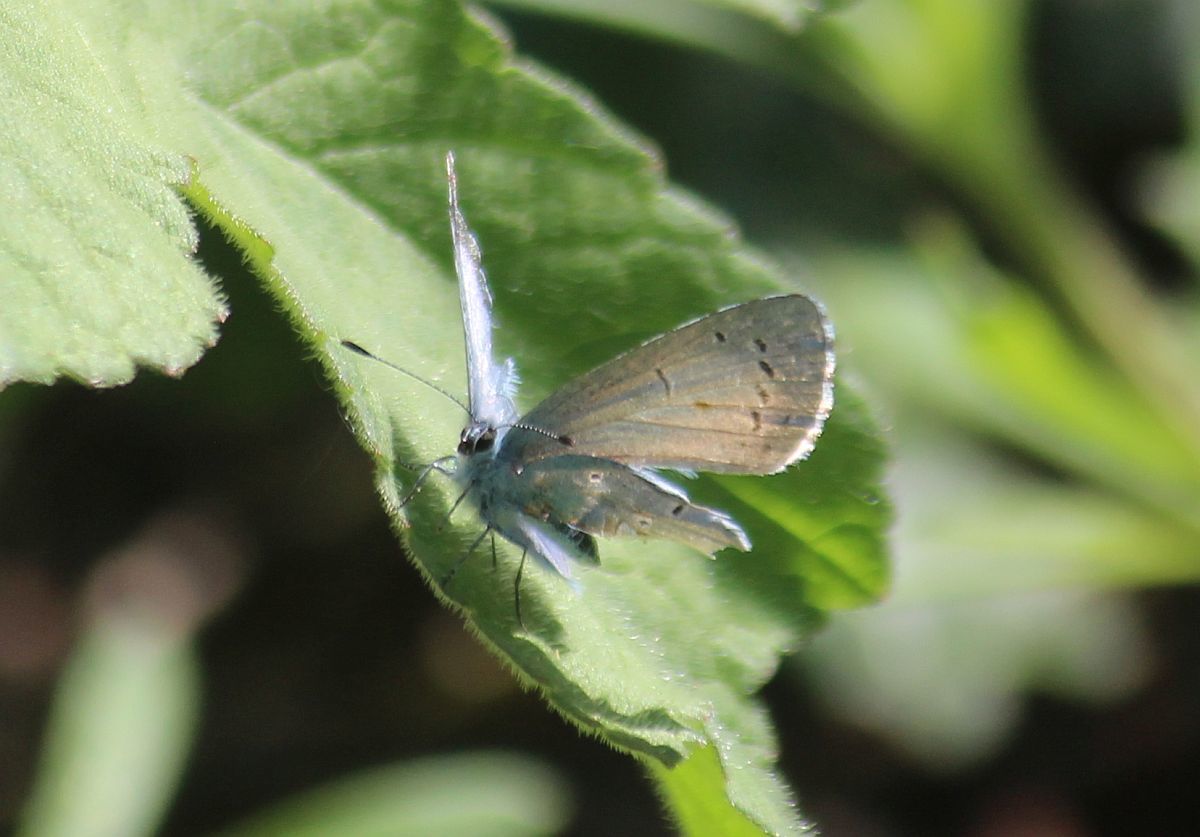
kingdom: Animalia
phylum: Arthropoda
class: Insecta
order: Lepidoptera
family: Lycaenidae
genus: Celastrina
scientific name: Celastrina argiolus
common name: Holly blue
